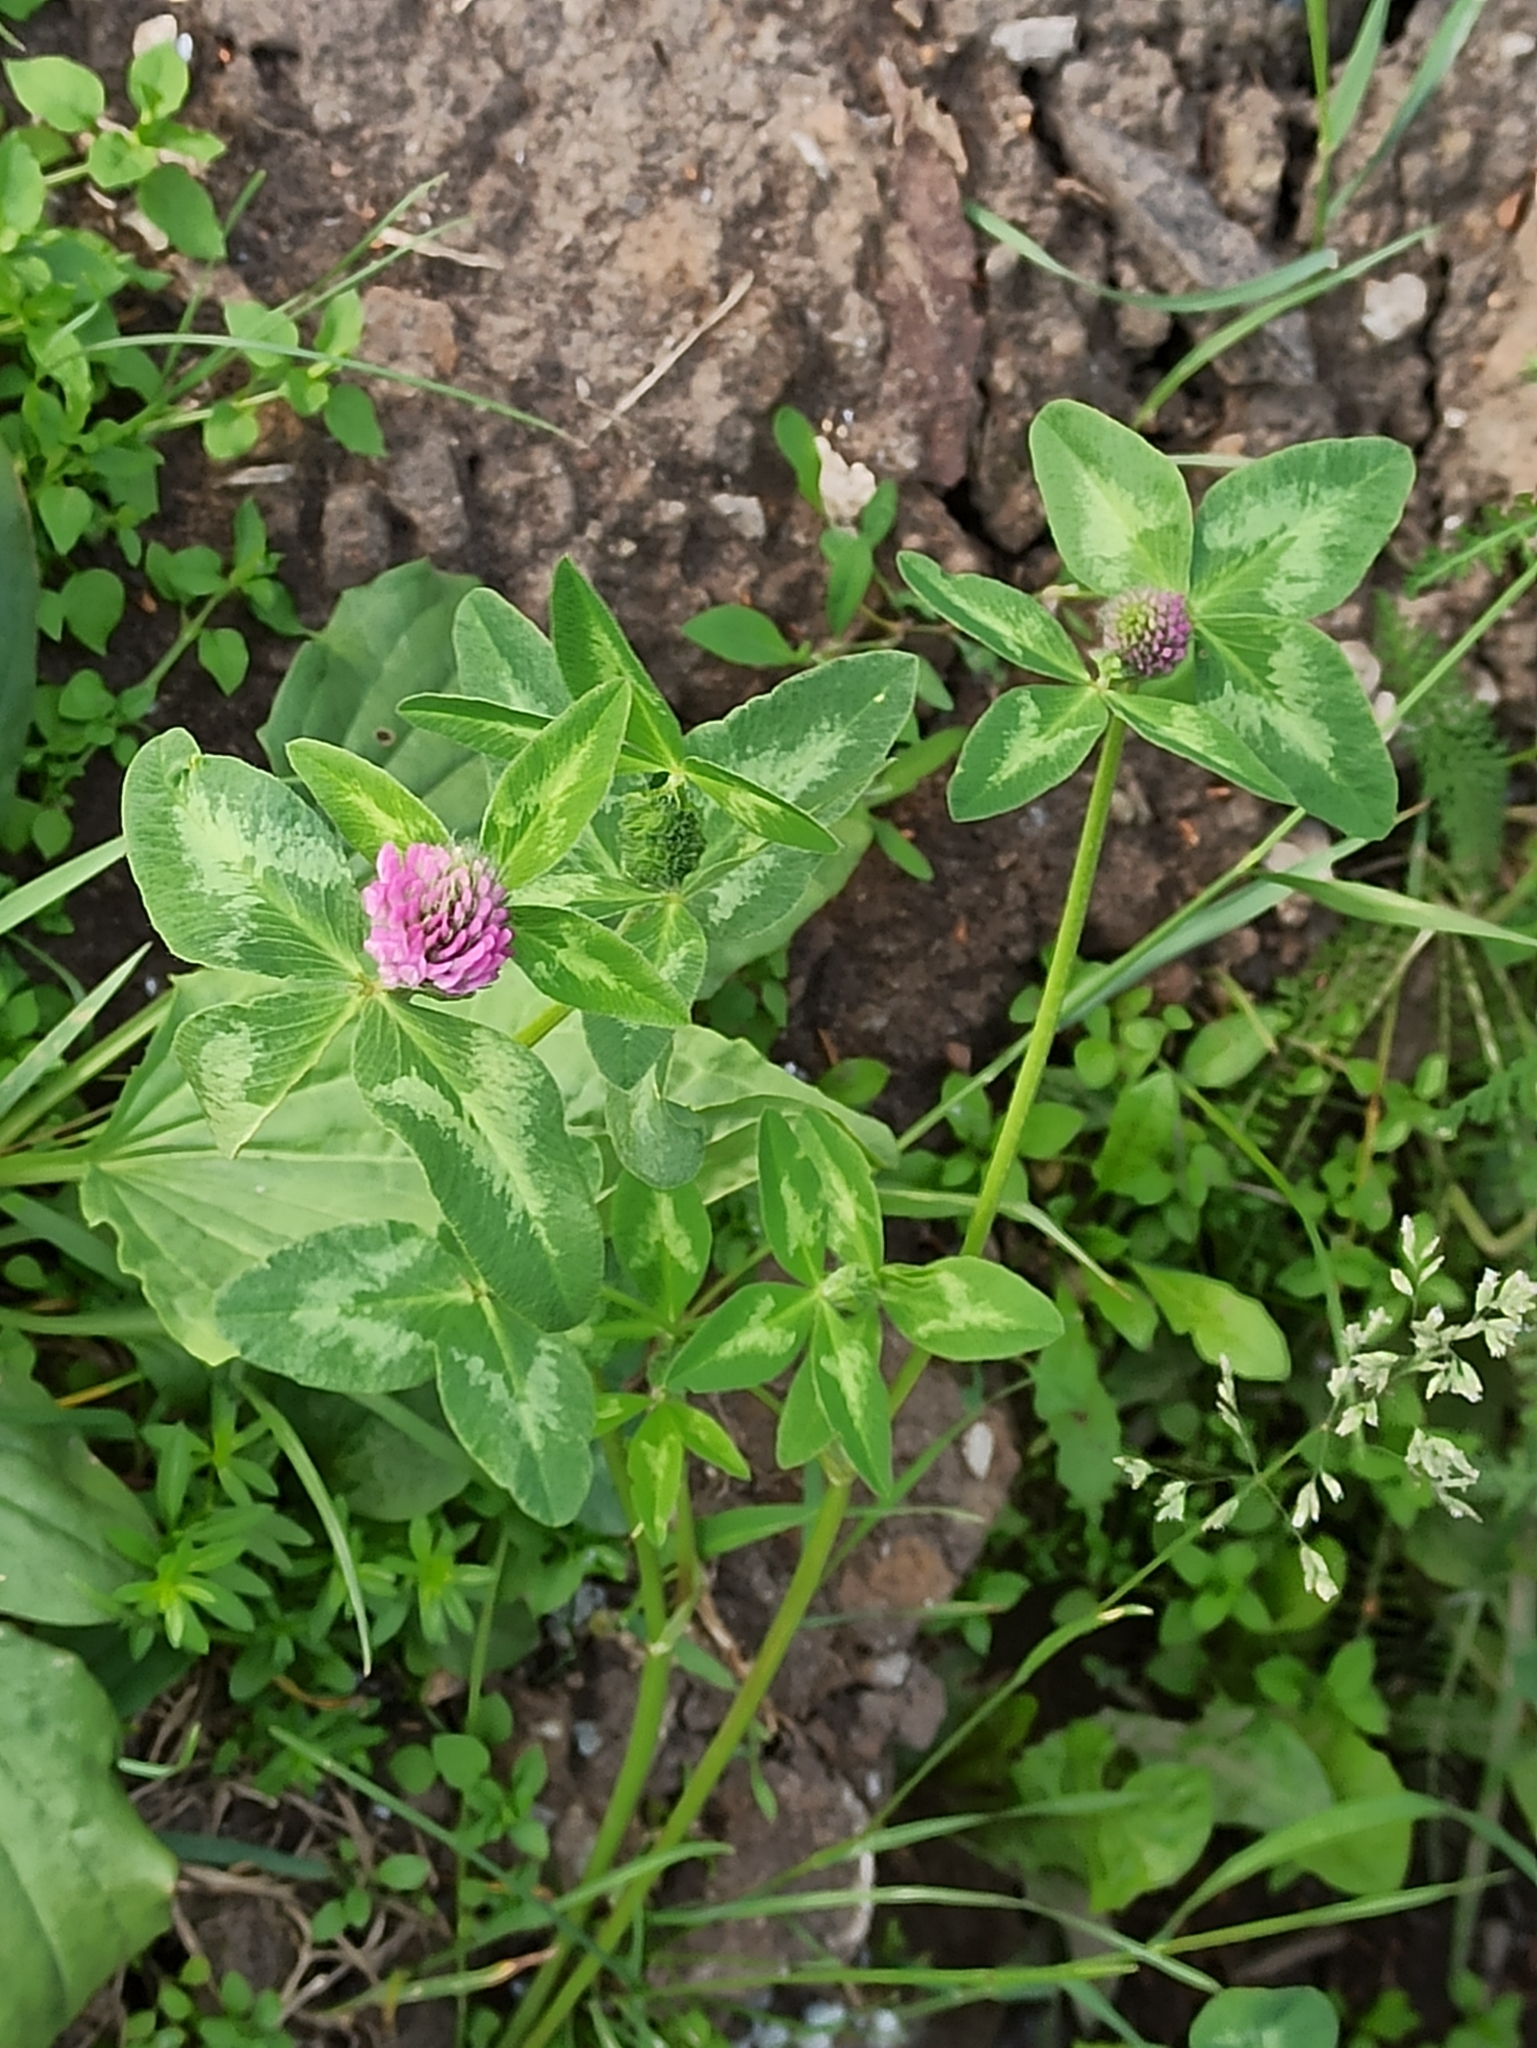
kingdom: Plantae
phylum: Tracheophyta
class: Magnoliopsida
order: Fabales
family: Fabaceae
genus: Trifolium
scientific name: Trifolium pratense
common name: Red clover
